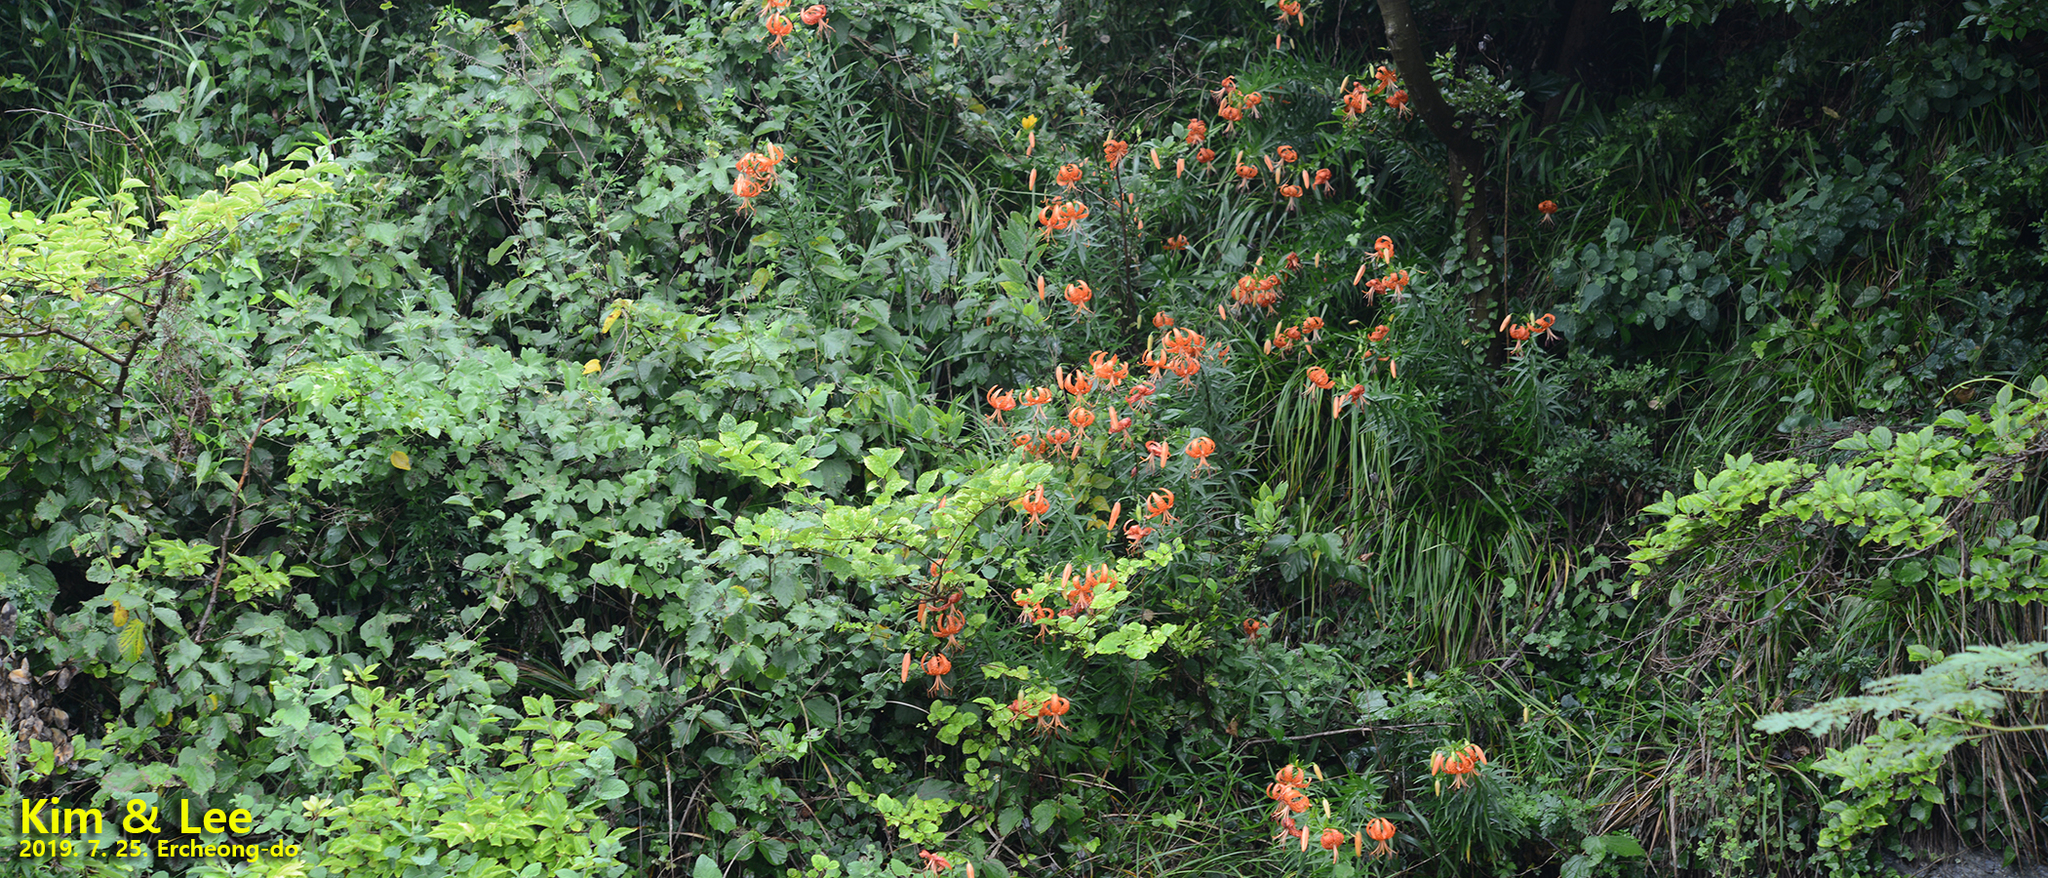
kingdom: Plantae
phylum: Tracheophyta
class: Liliopsida
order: Liliales
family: Liliaceae
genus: Lilium
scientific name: Lilium lancifolium
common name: Tiger lily
